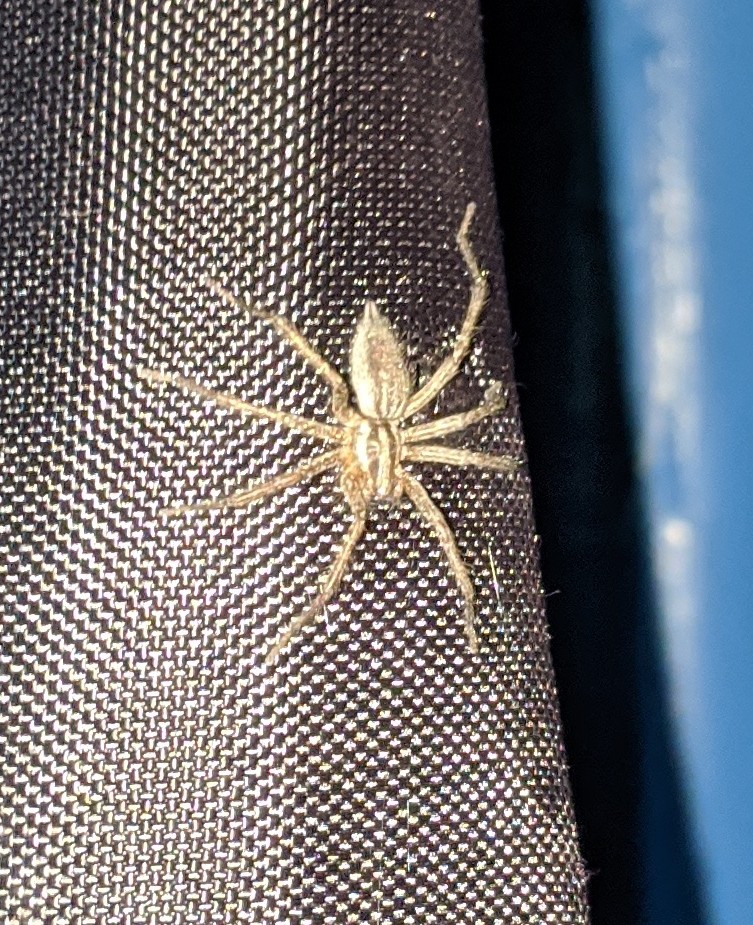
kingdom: Animalia
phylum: Arthropoda
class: Arachnida
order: Araneae
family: Agelenidae
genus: Agelenopsis
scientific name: Agelenopsis
